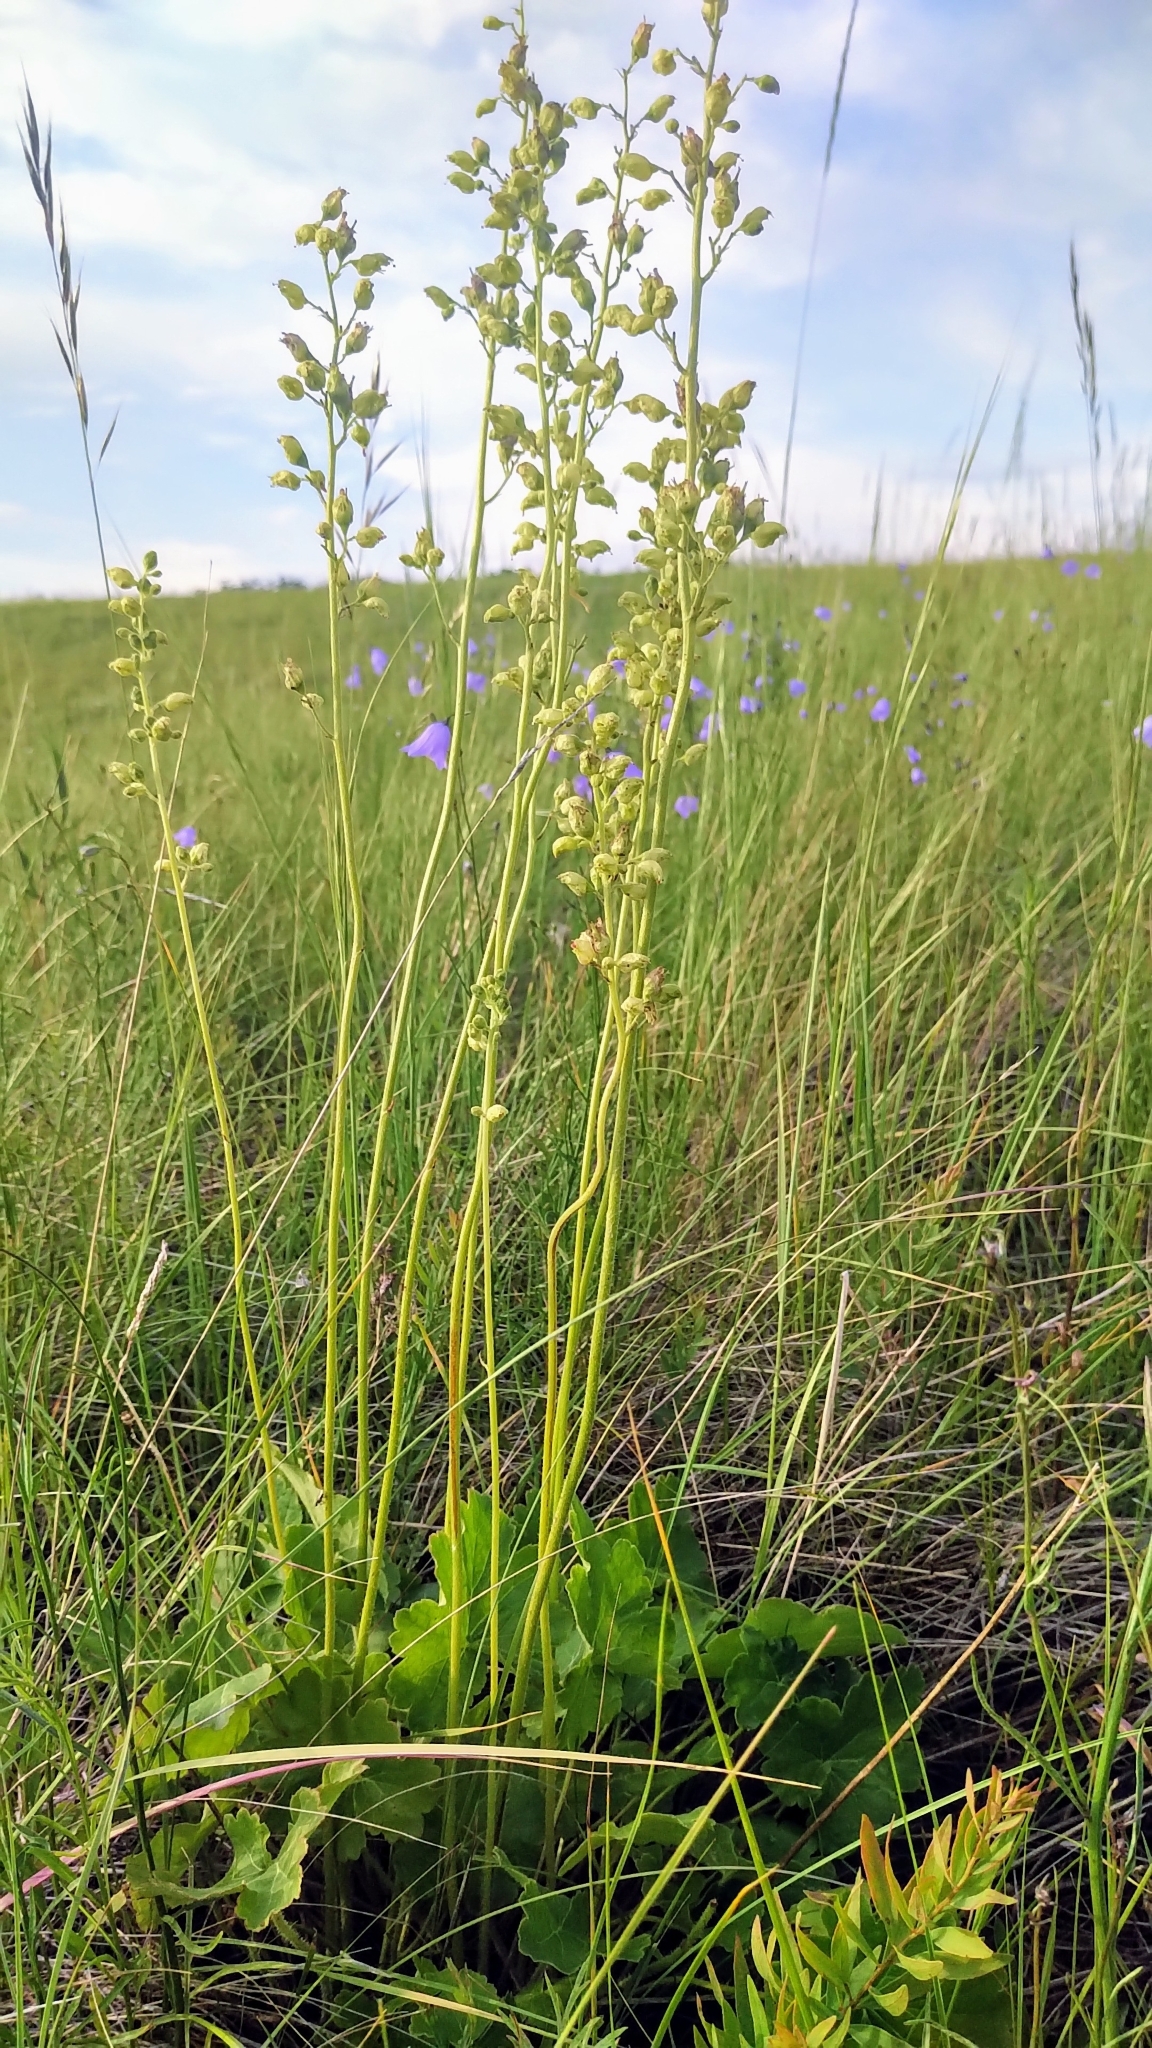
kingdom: Plantae
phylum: Tracheophyta
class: Magnoliopsida
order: Saxifragales
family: Saxifragaceae
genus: Heuchera
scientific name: Heuchera richardsonii
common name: Richardson's alumroot
